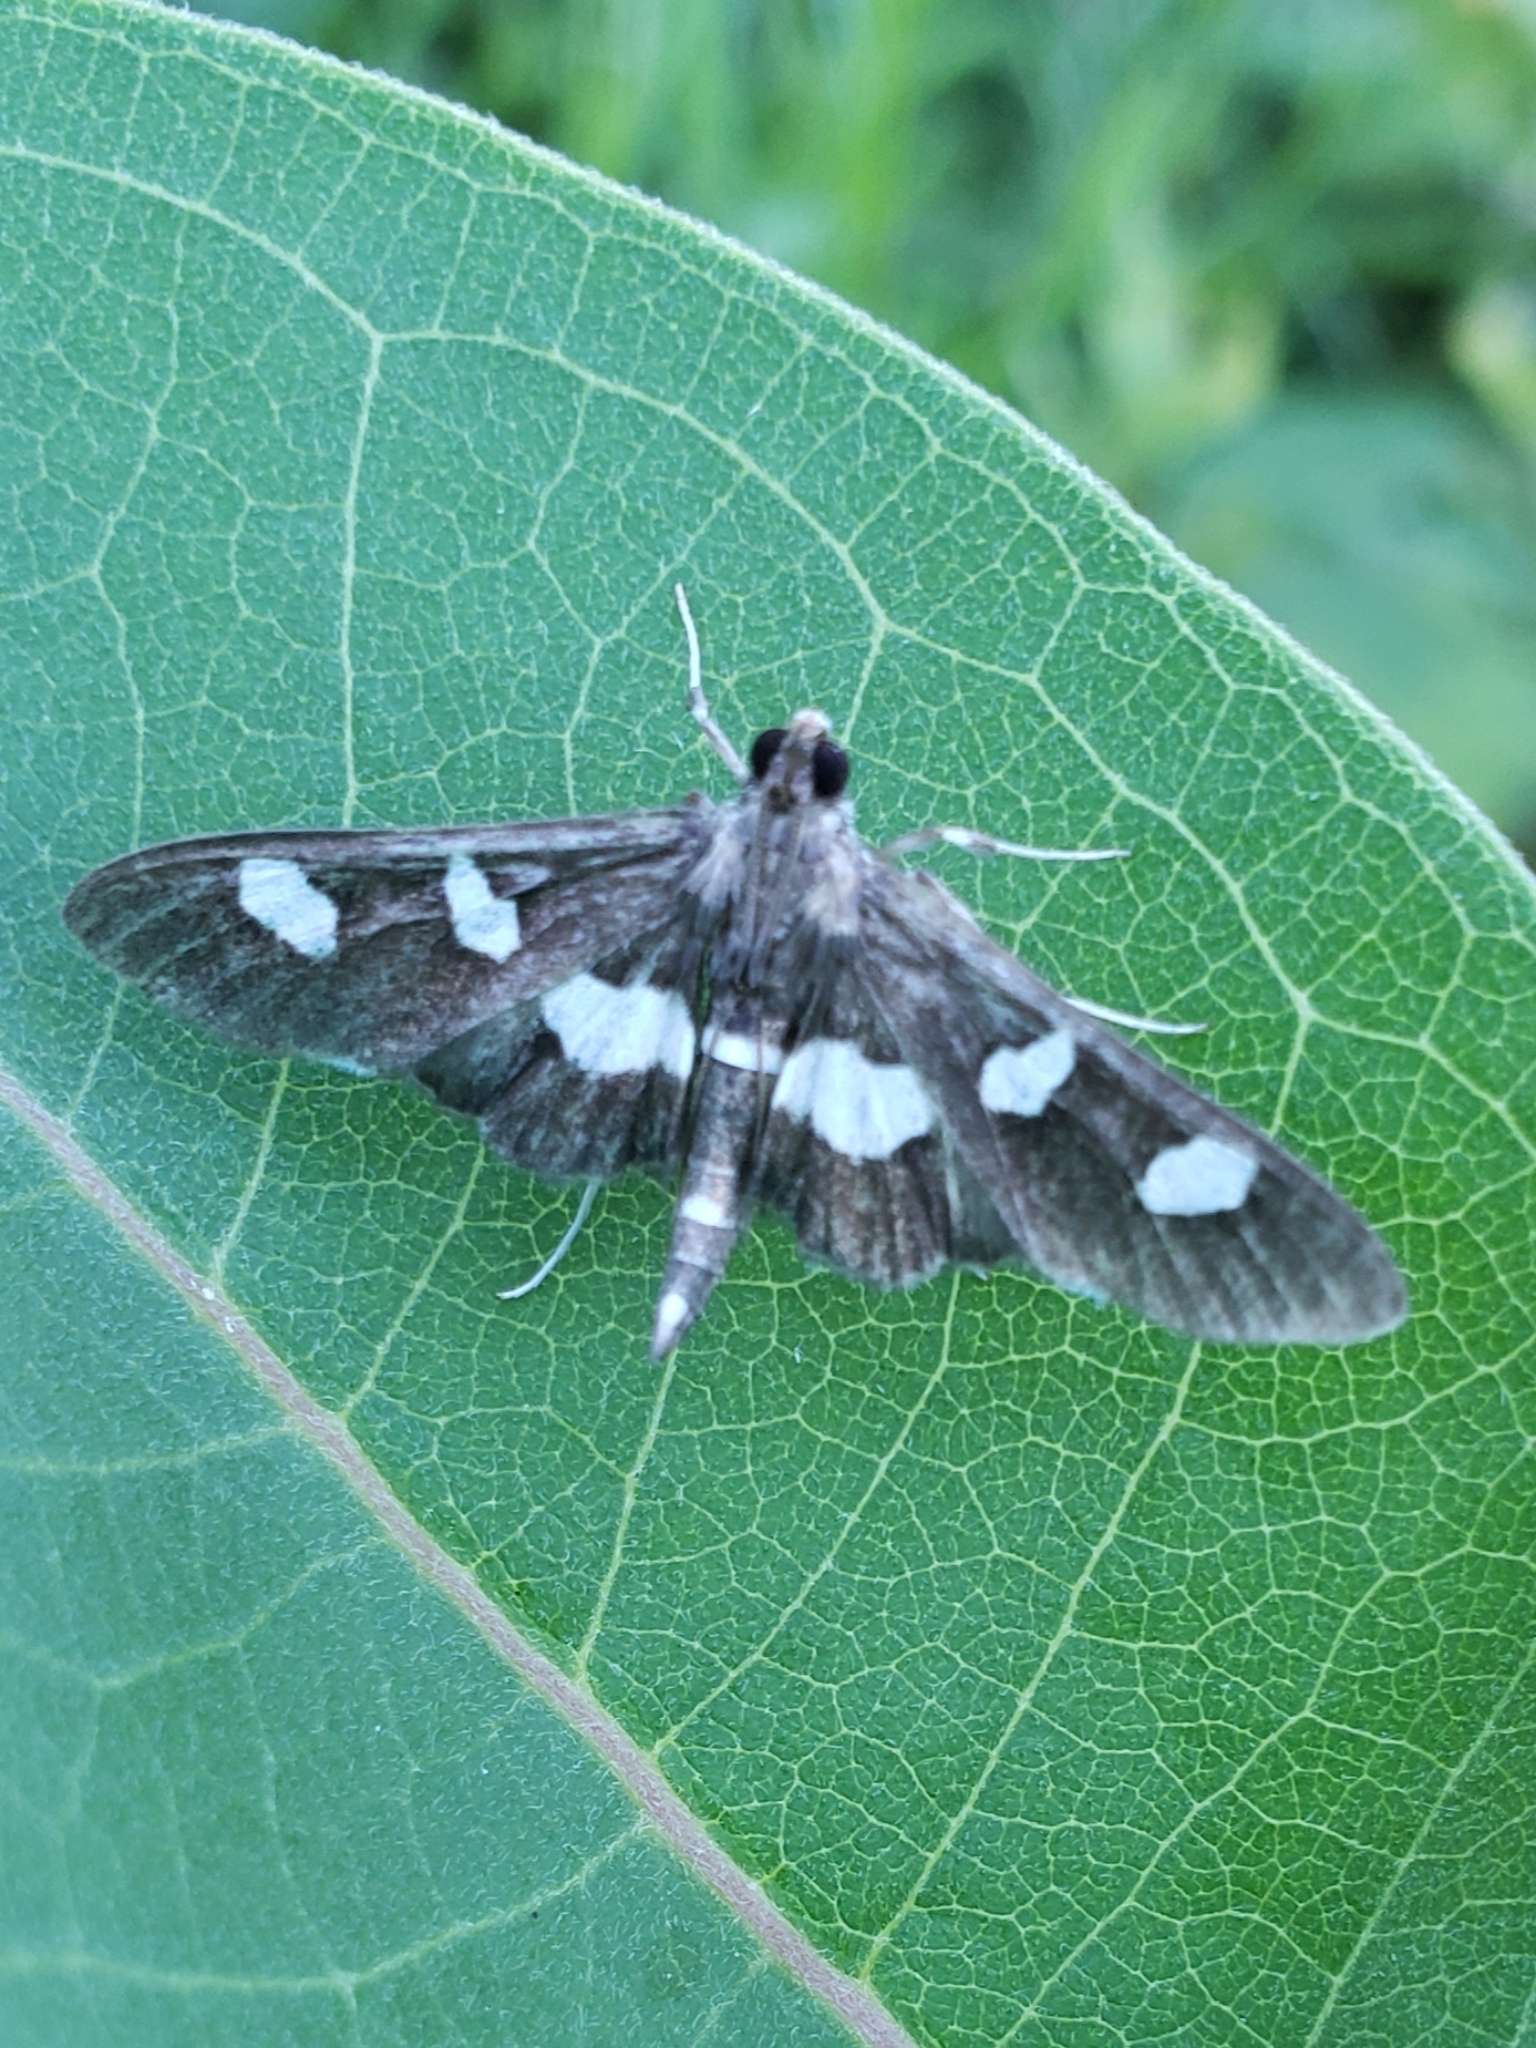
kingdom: Animalia
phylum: Arthropoda
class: Insecta
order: Lepidoptera
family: Crambidae
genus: Desmia
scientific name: Desmia
